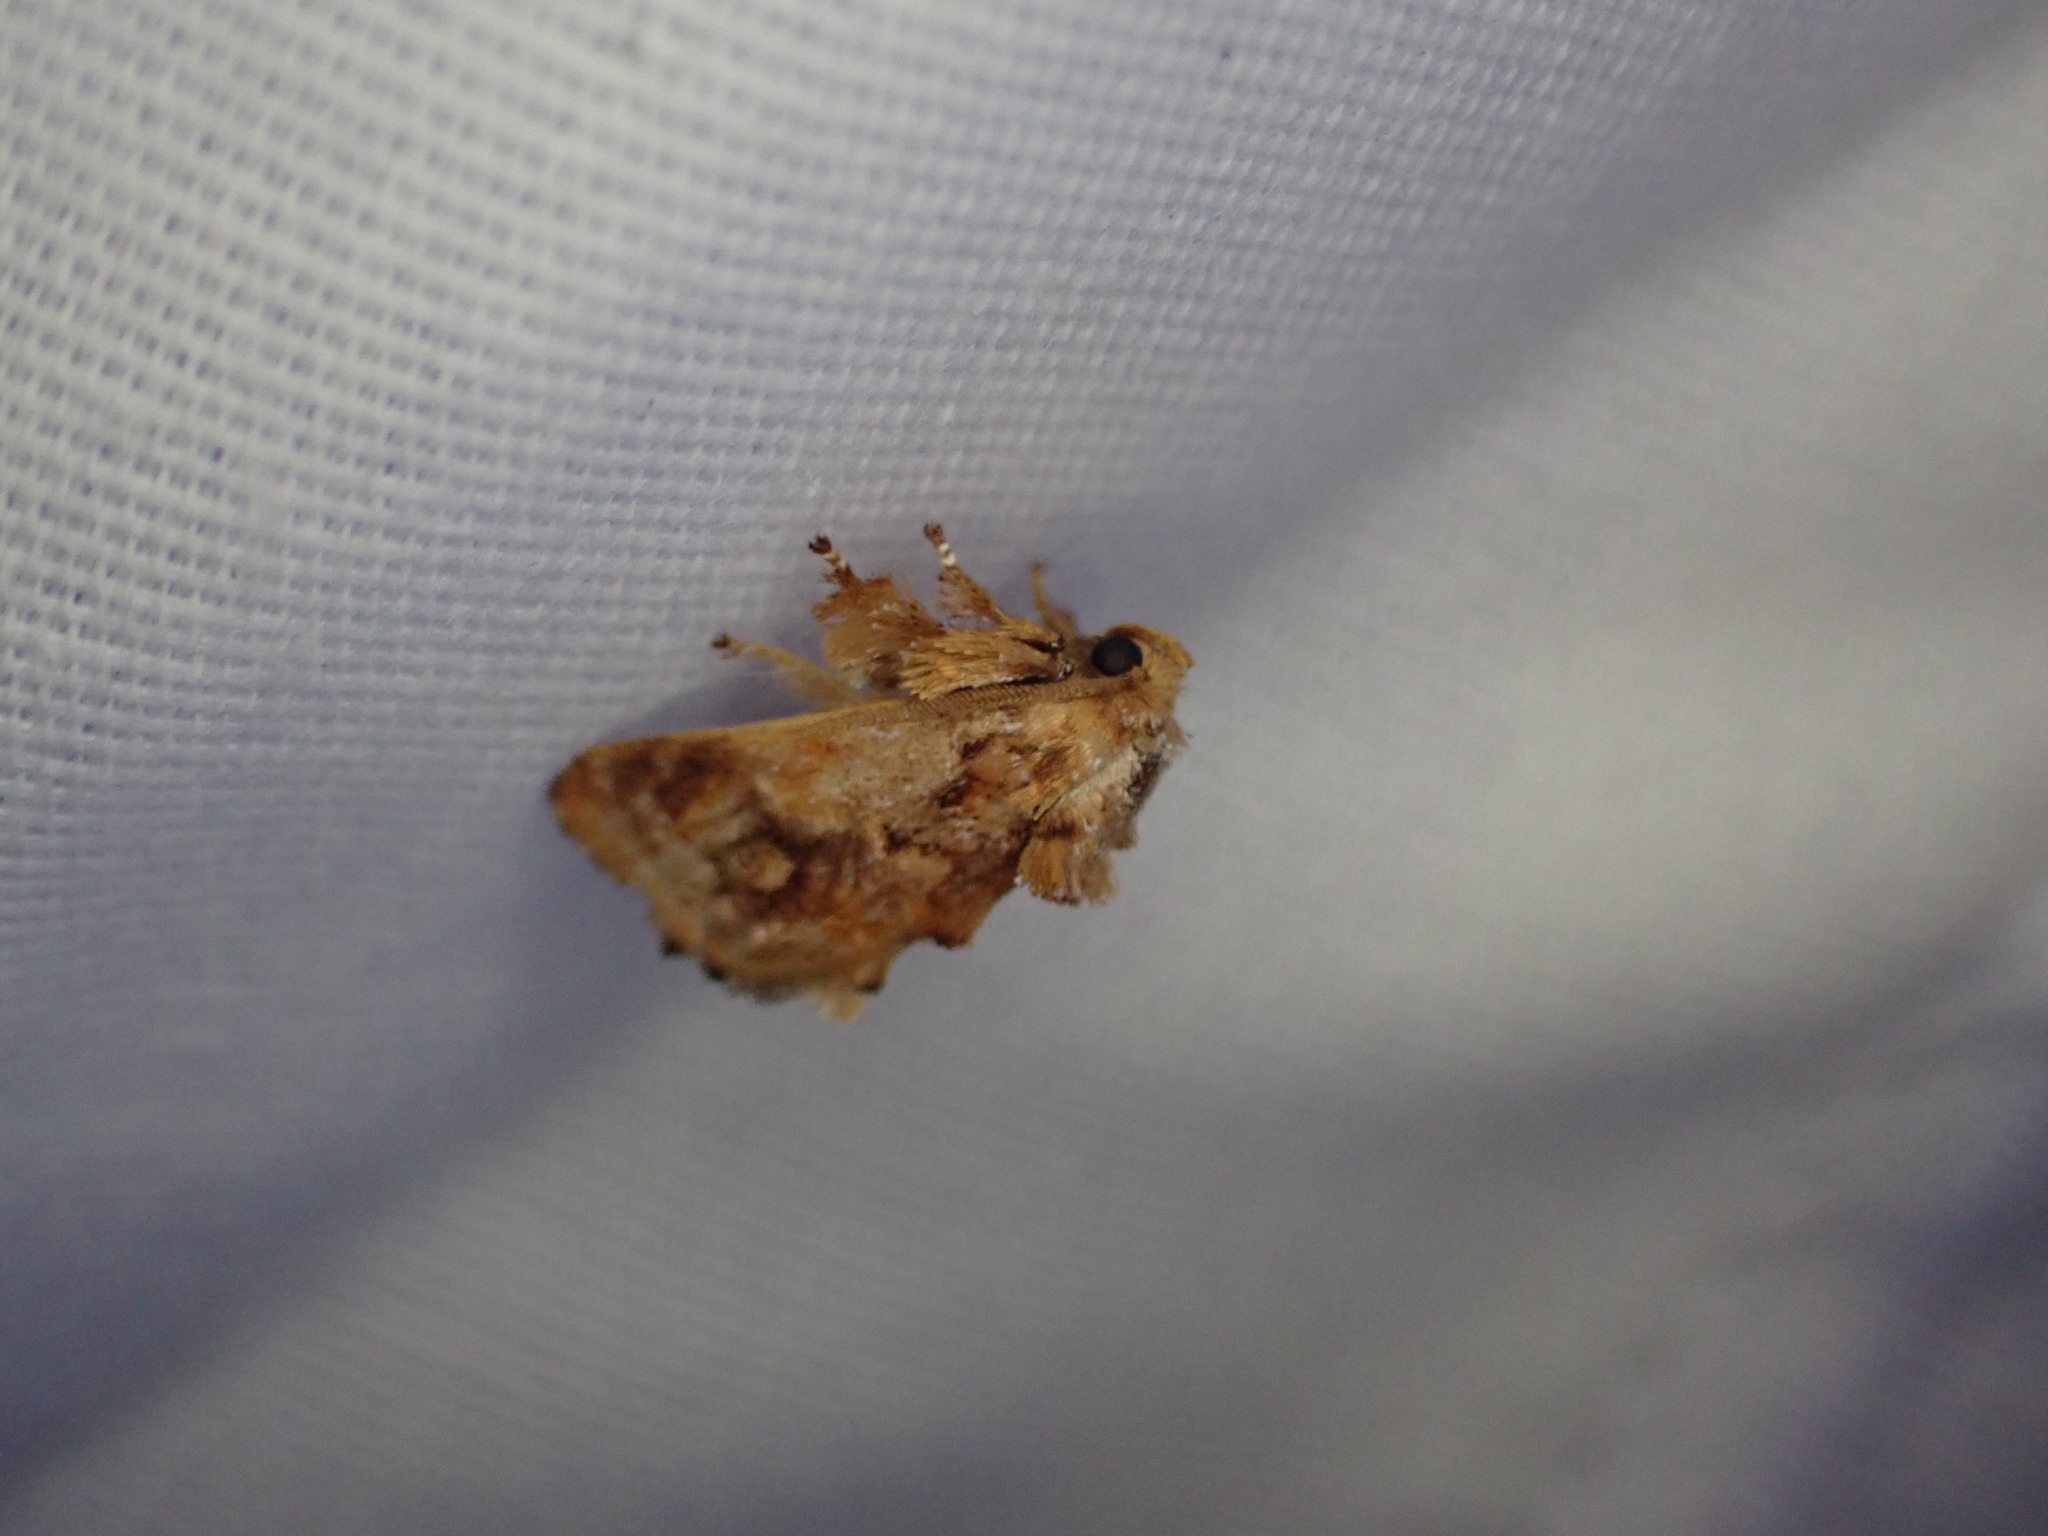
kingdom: Animalia
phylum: Arthropoda
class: Insecta
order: Lepidoptera
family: Limacodidae
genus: Isochaetes
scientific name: Isochaetes beutenmuelleri
